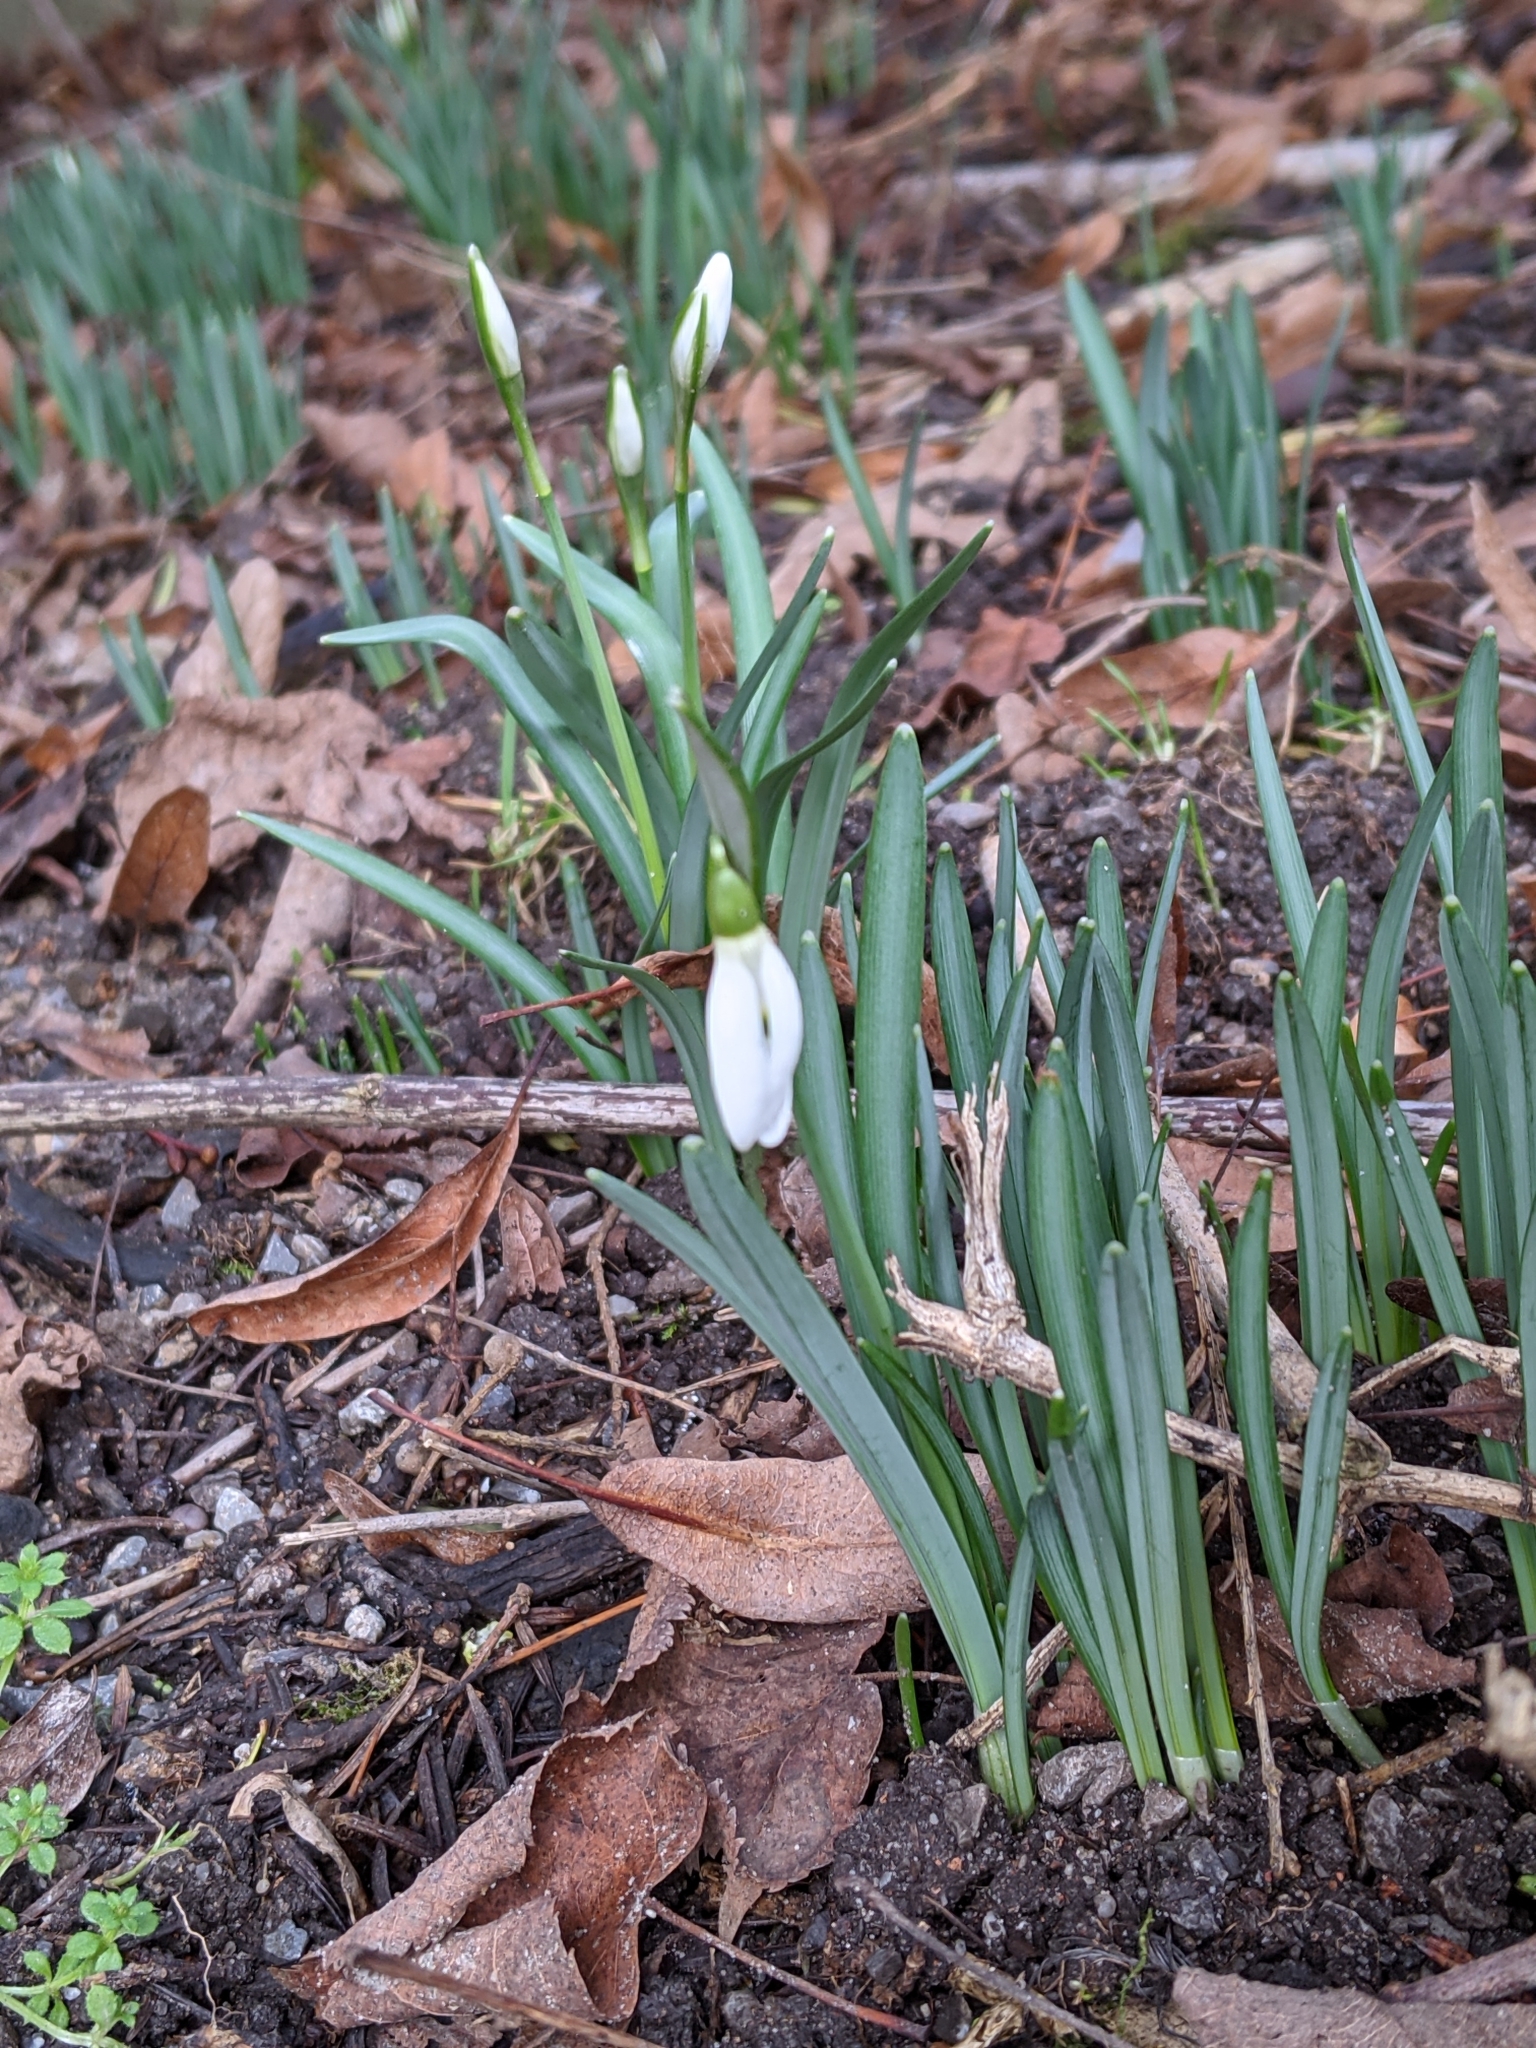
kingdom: Plantae
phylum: Tracheophyta
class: Liliopsida
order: Asparagales
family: Amaryllidaceae
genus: Galanthus
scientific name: Galanthus nivalis
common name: Snowdrop
